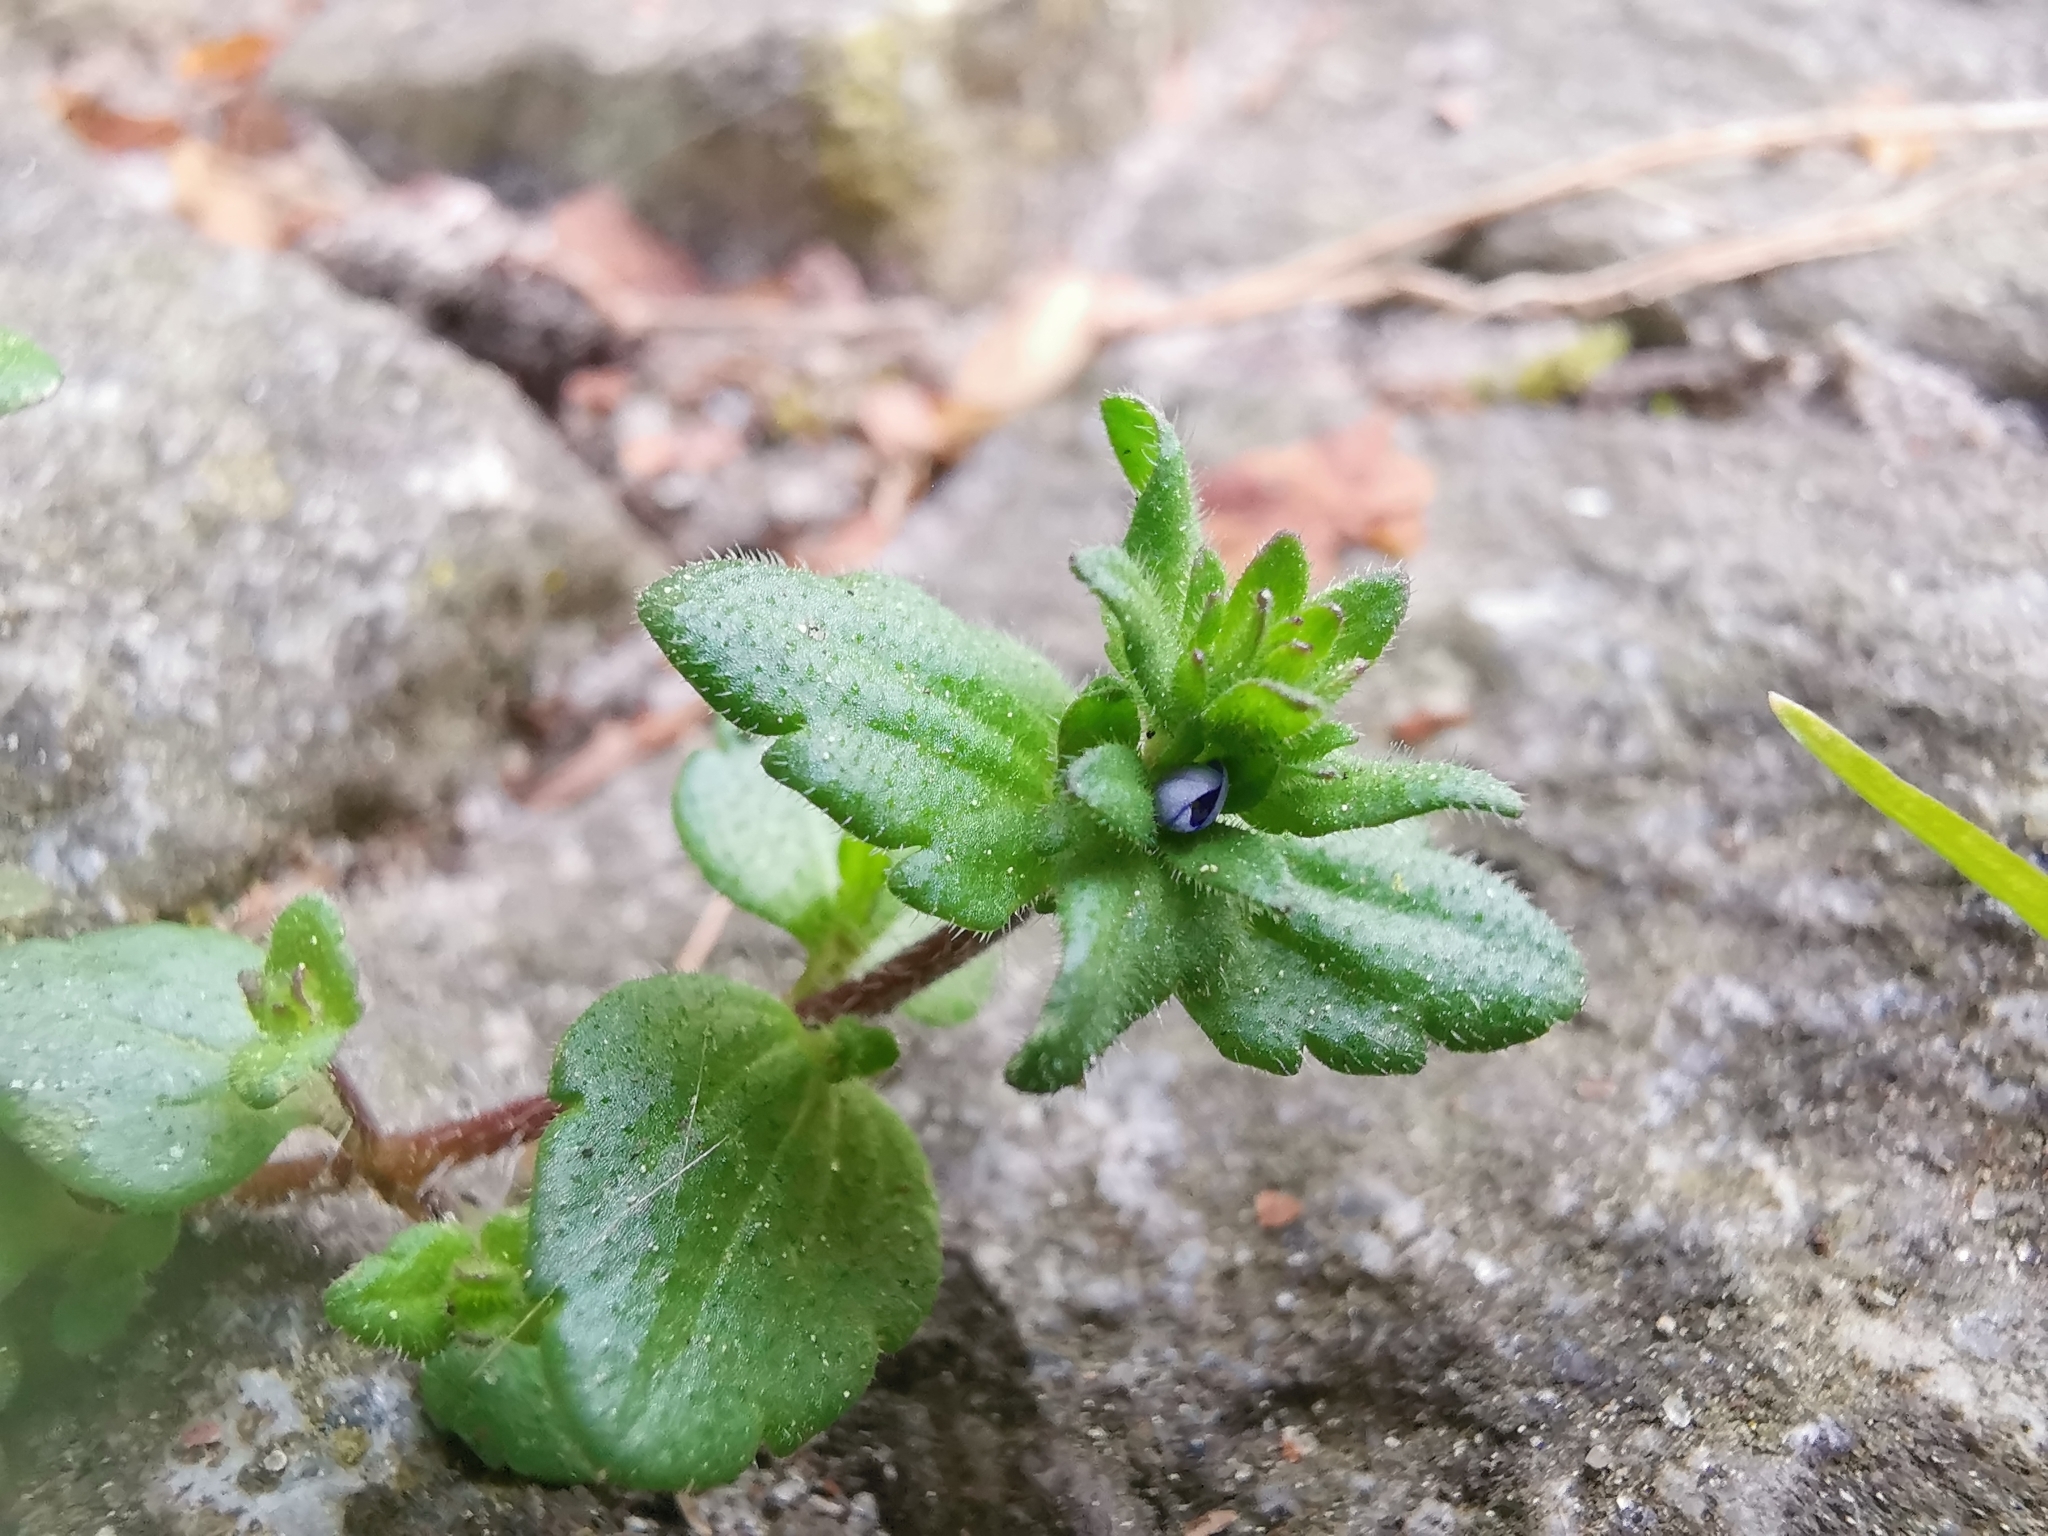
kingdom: Plantae
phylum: Tracheophyta
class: Magnoliopsida
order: Lamiales
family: Plantaginaceae
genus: Veronica
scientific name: Veronica arvensis
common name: Corn speedwell
